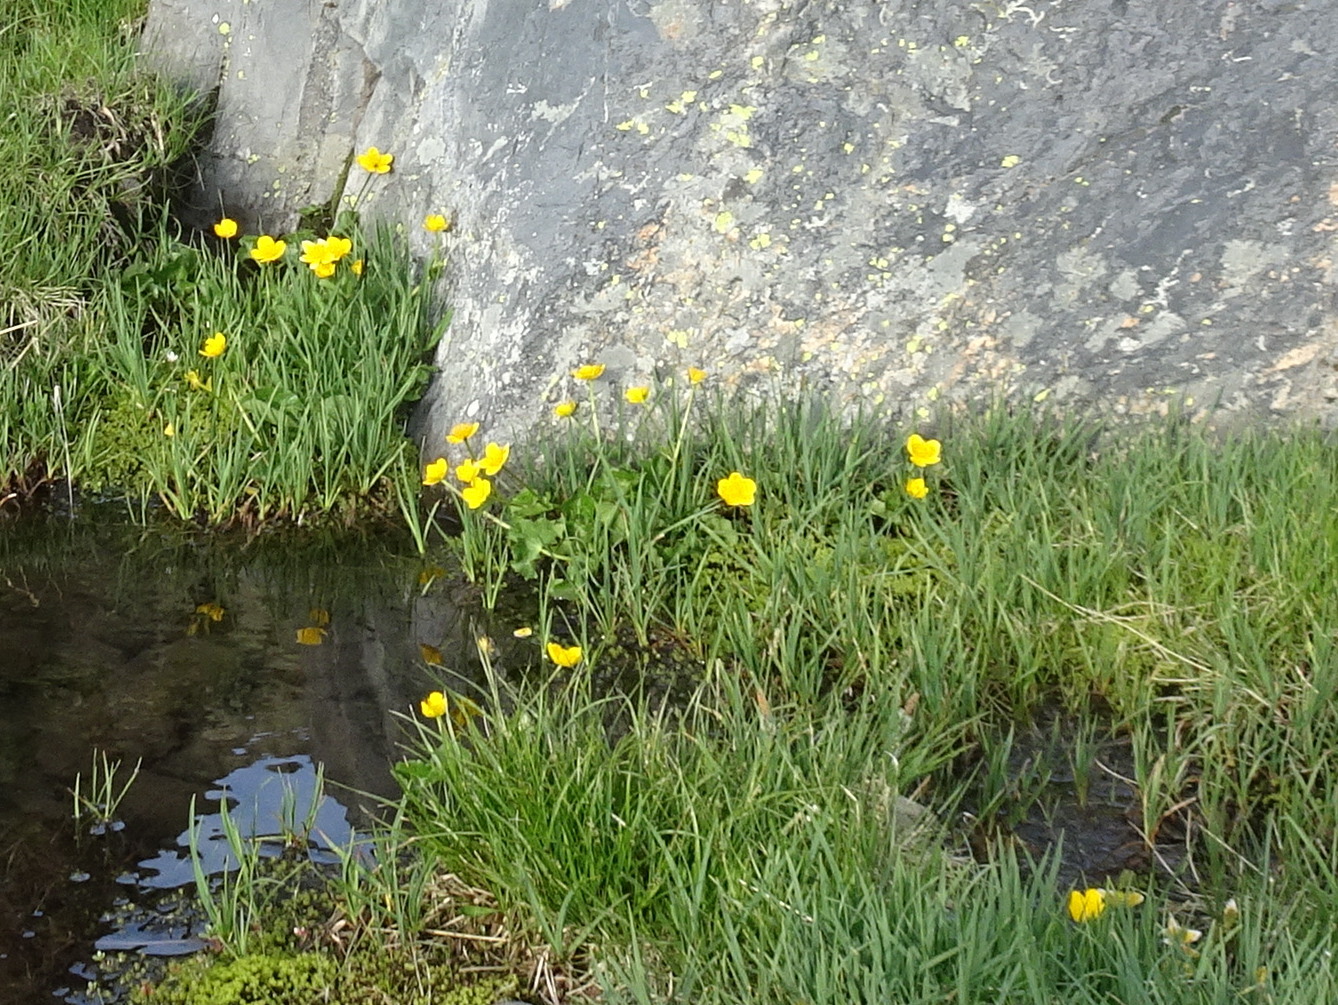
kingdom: Plantae
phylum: Tracheophyta
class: Magnoliopsida
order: Ranunculales
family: Ranunculaceae
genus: Caltha
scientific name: Caltha palustris
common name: Marsh marigold
